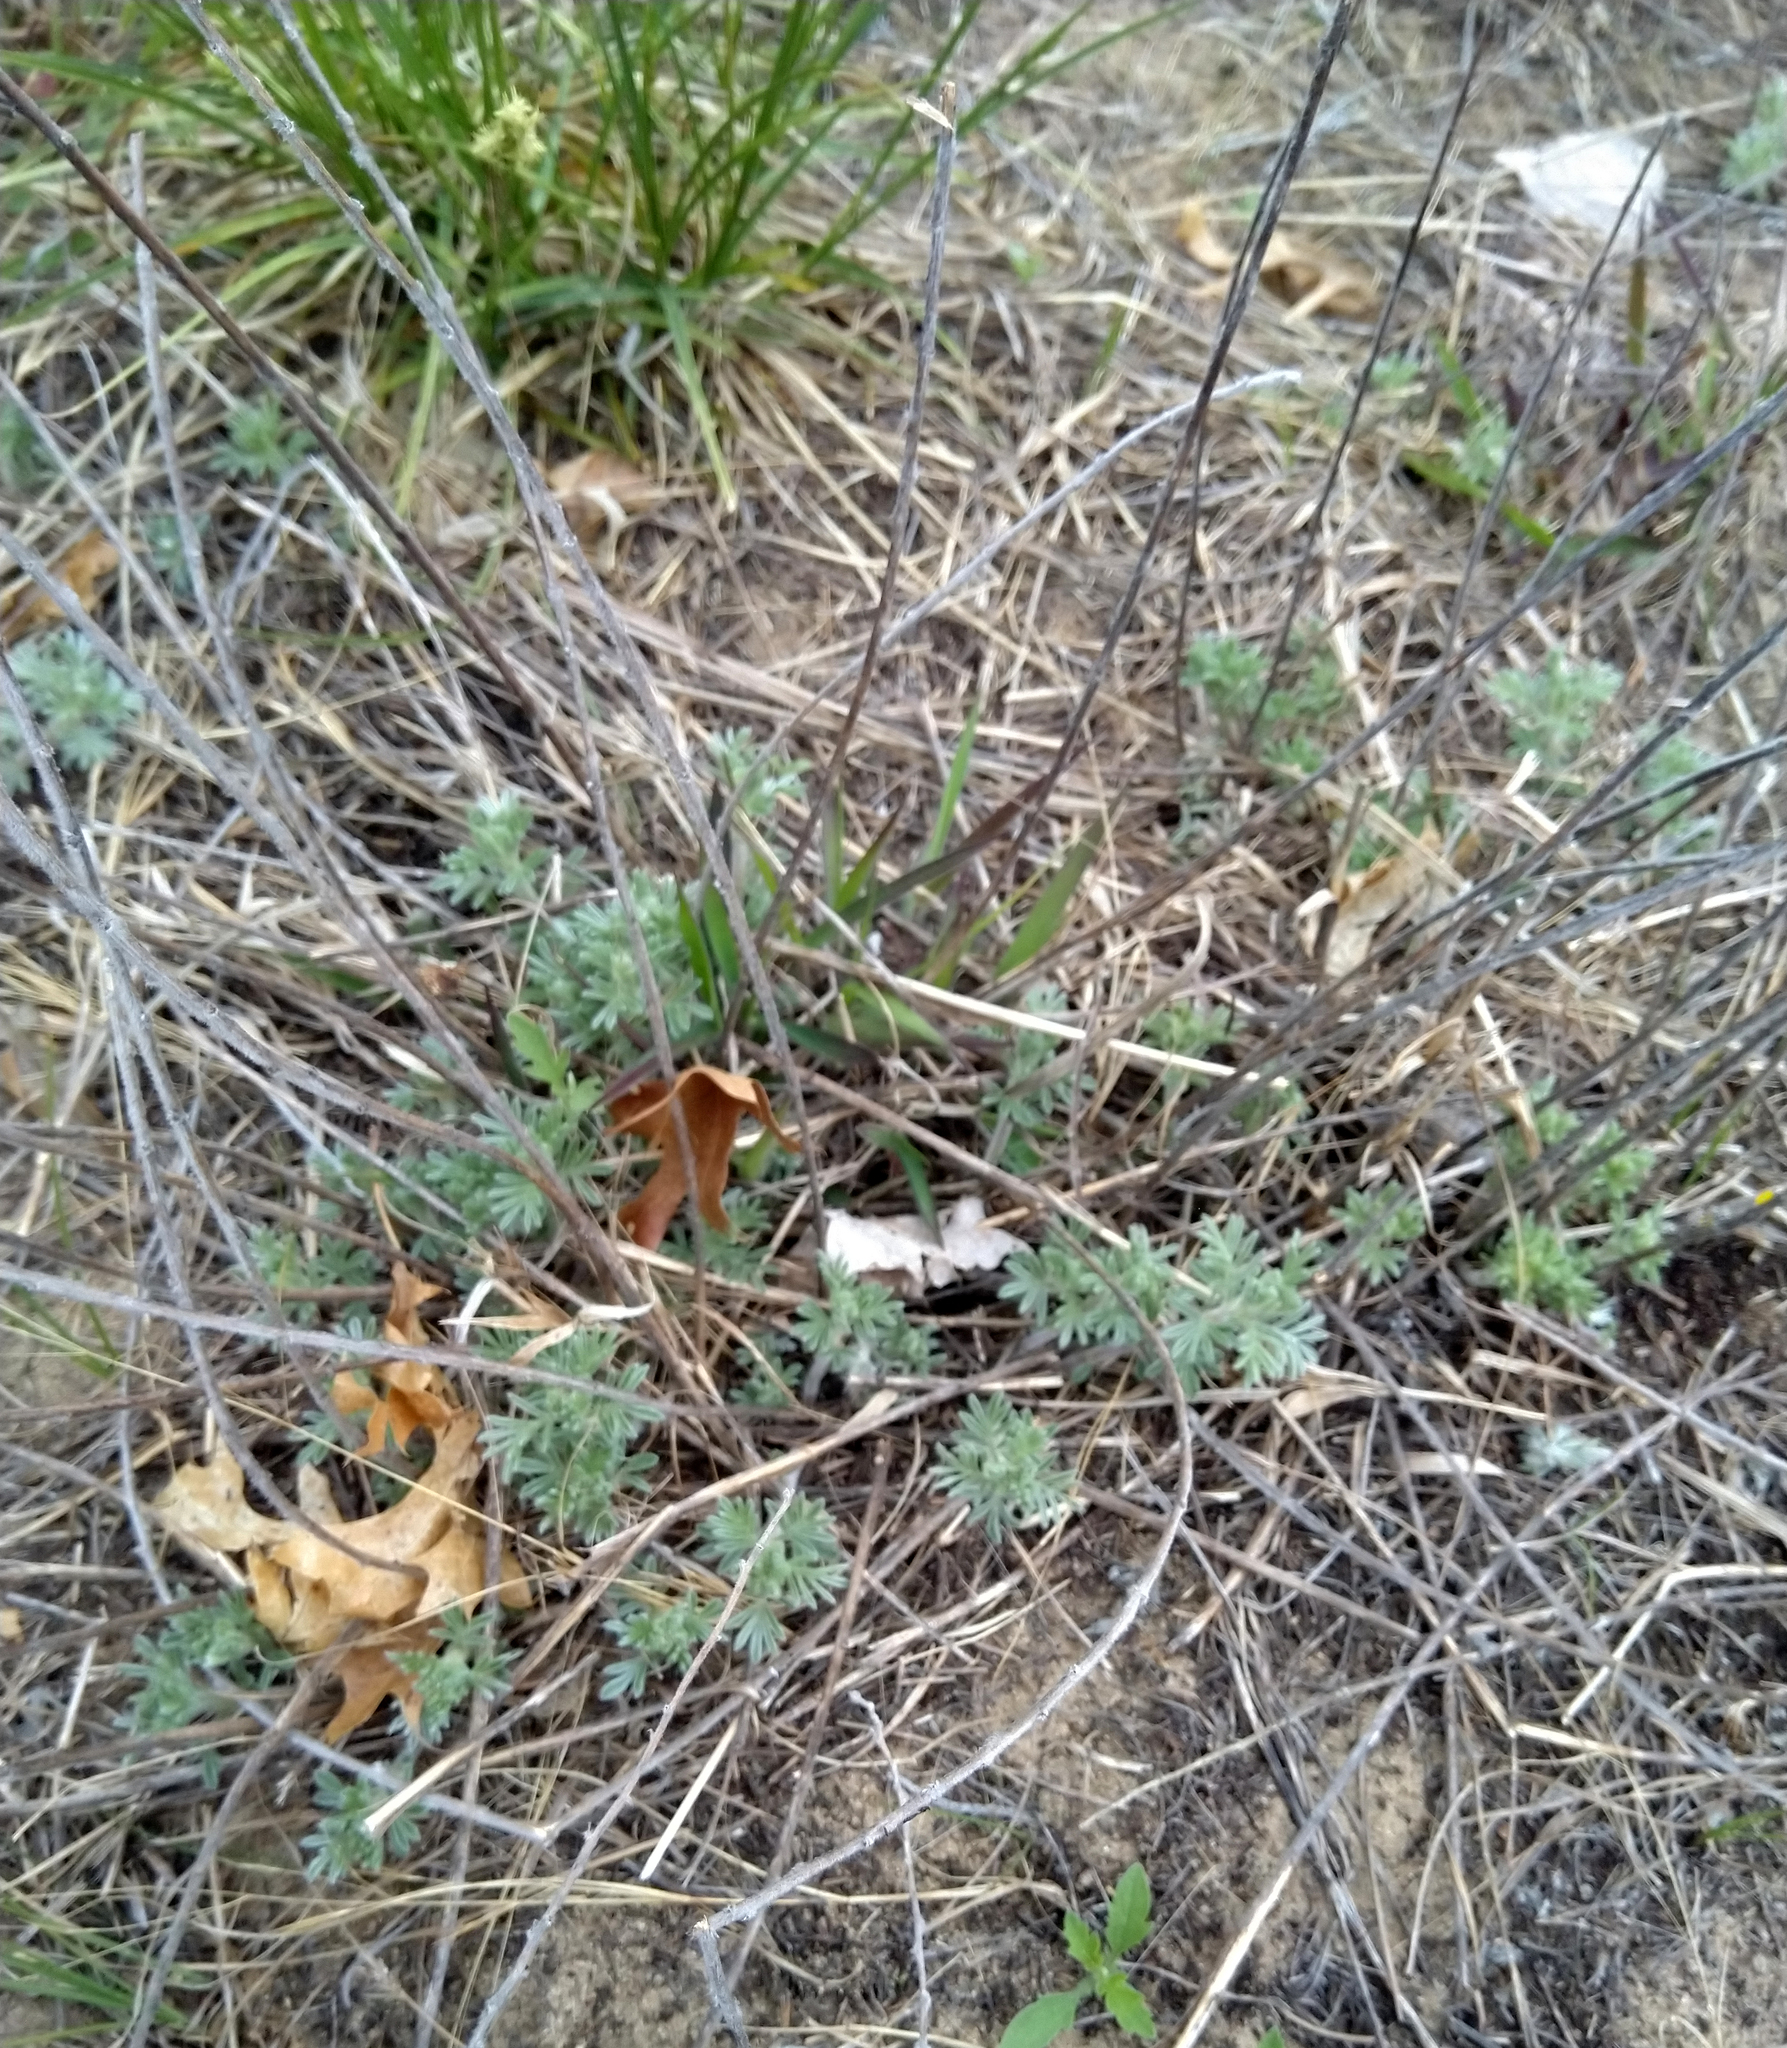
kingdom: Plantae
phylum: Tracheophyta
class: Magnoliopsida
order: Fabales
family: Fabaceae
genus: Dalea
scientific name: Dalea villosa
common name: Silky prairie-clover
